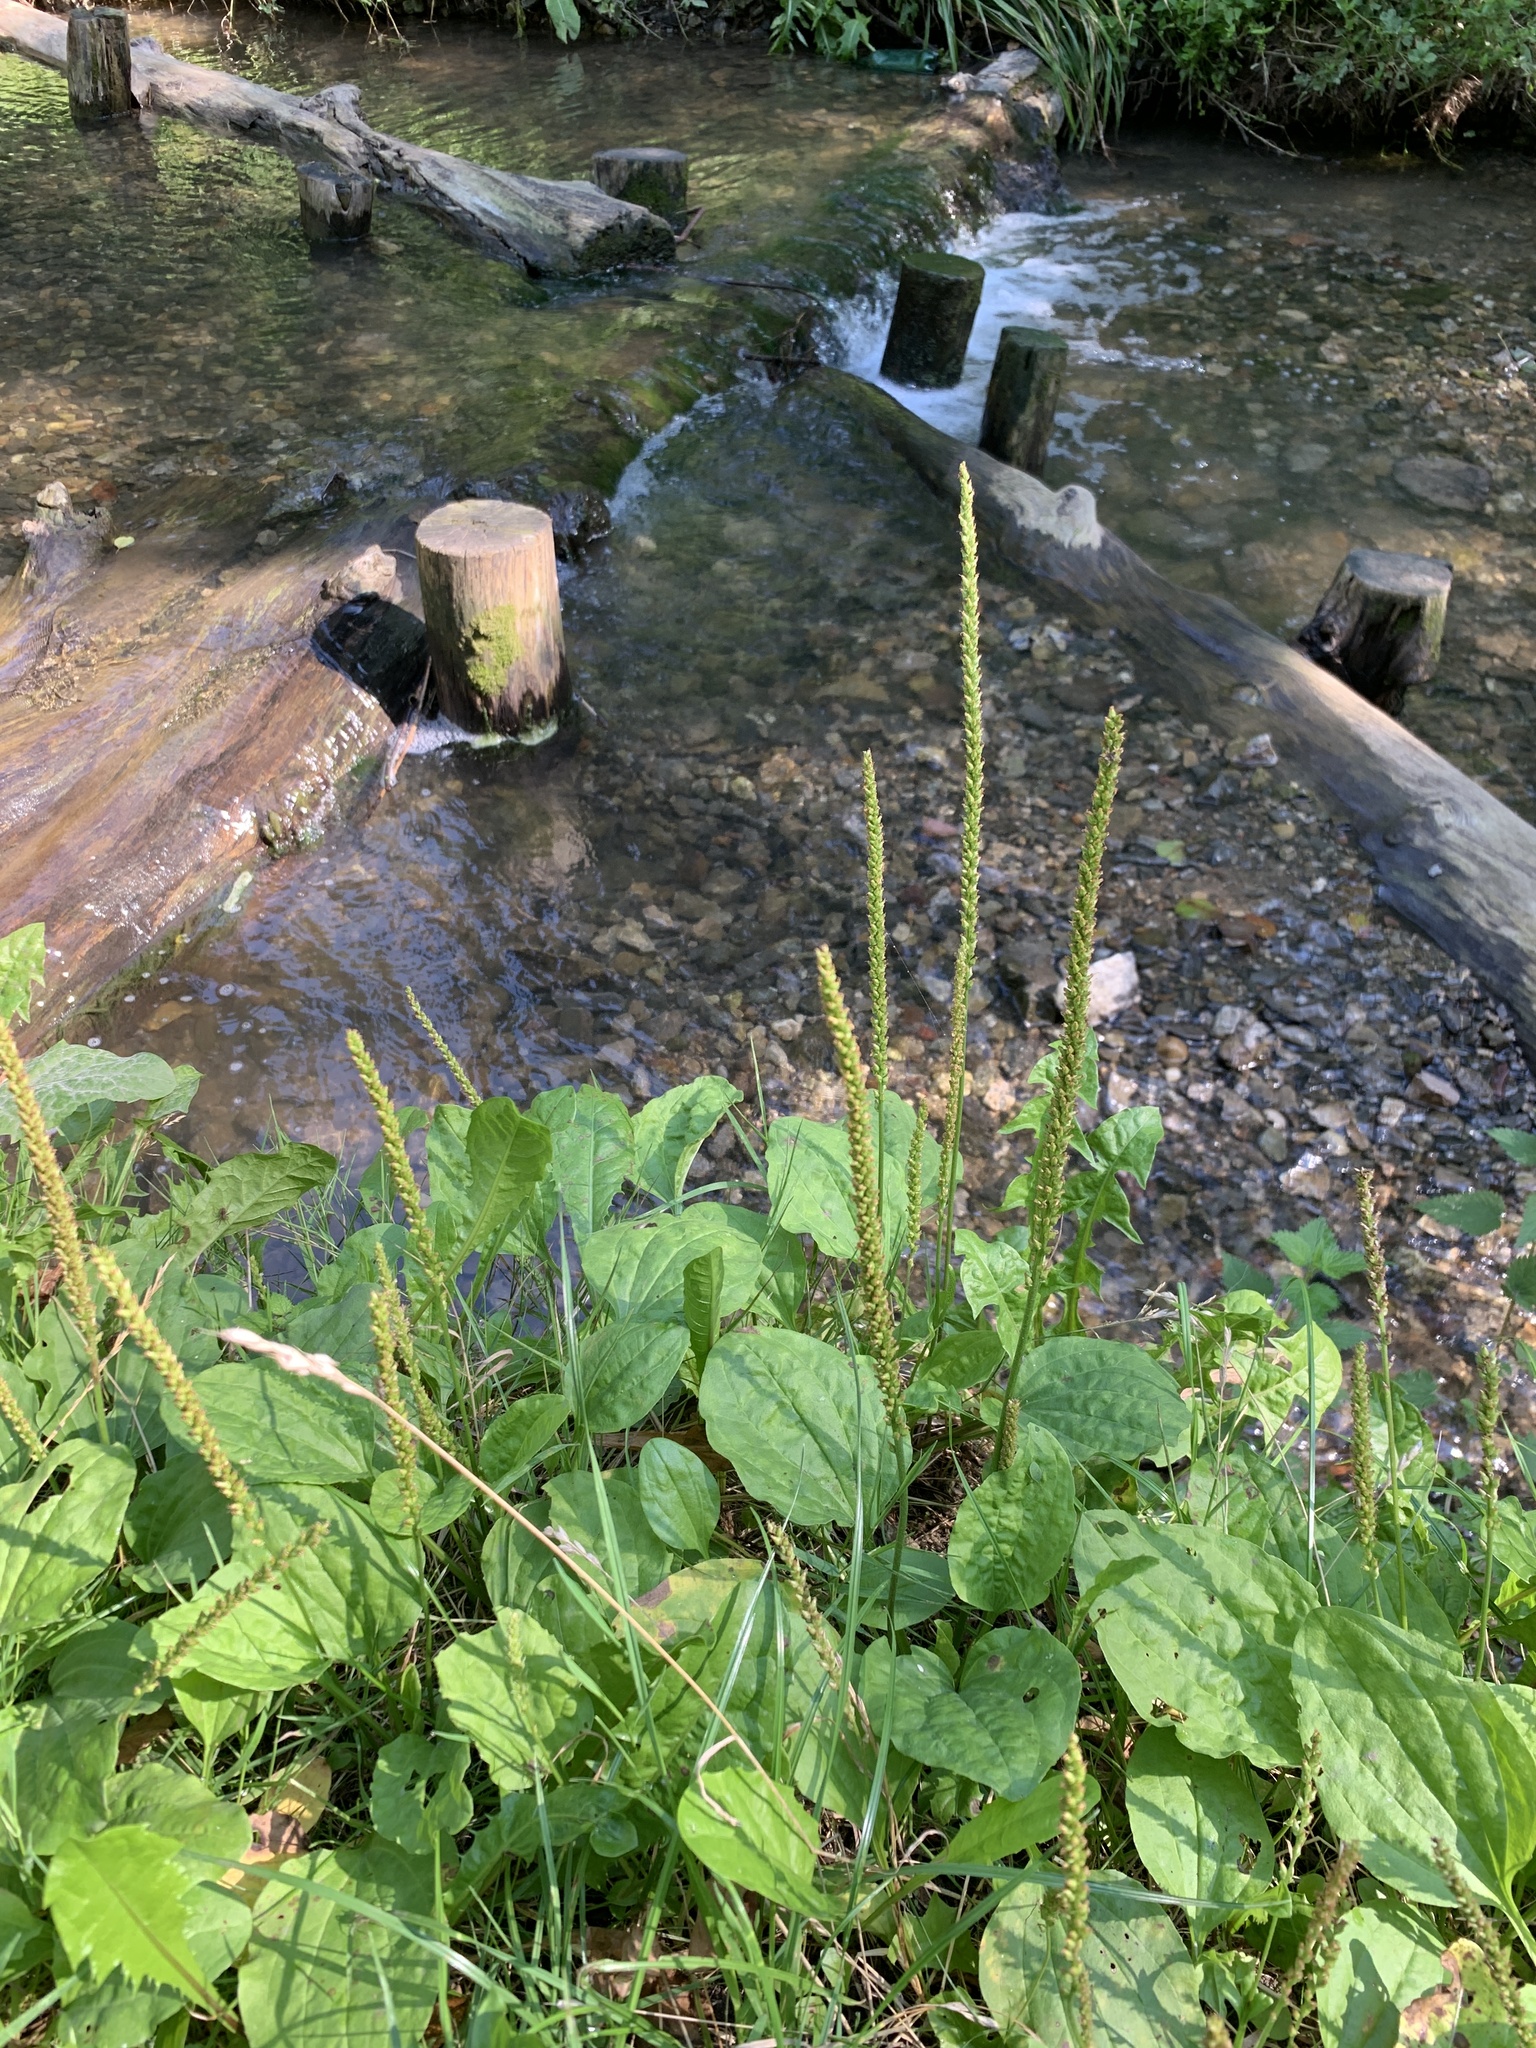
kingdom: Plantae
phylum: Tracheophyta
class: Magnoliopsida
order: Lamiales
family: Plantaginaceae
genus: Plantago
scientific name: Plantago major
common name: Common plantain
